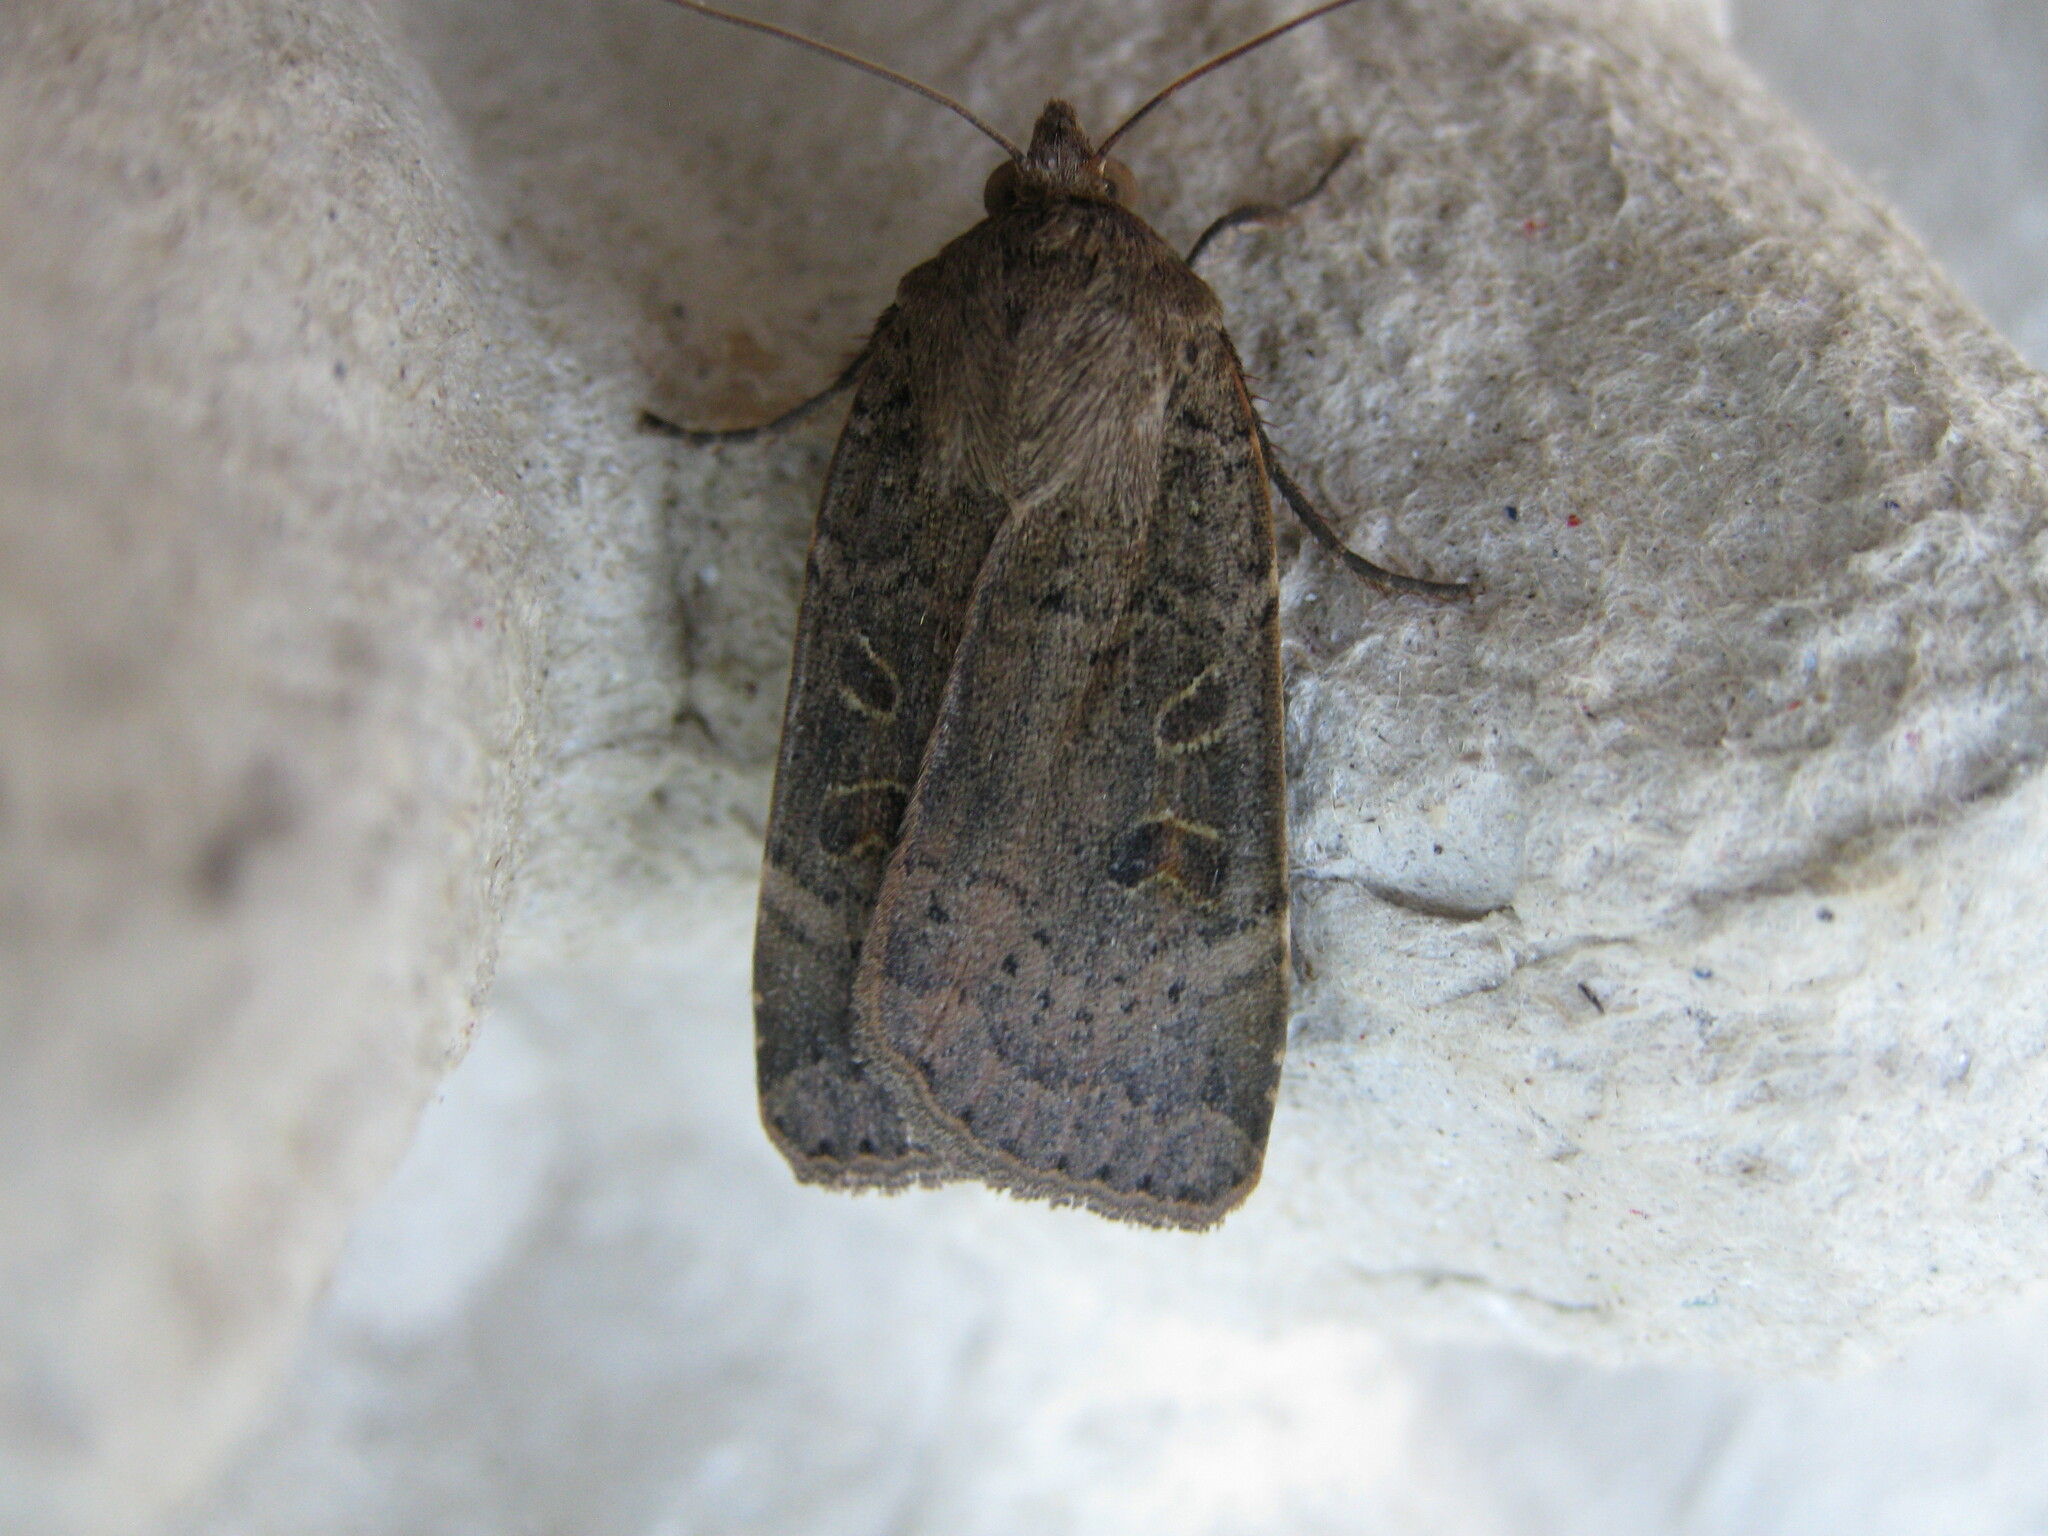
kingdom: Animalia
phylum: Arthropoda
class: Insecta
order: Lepidoptera
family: Noctuidae
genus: Noctua
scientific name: Noctua comes
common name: Lesser yellow underwing
